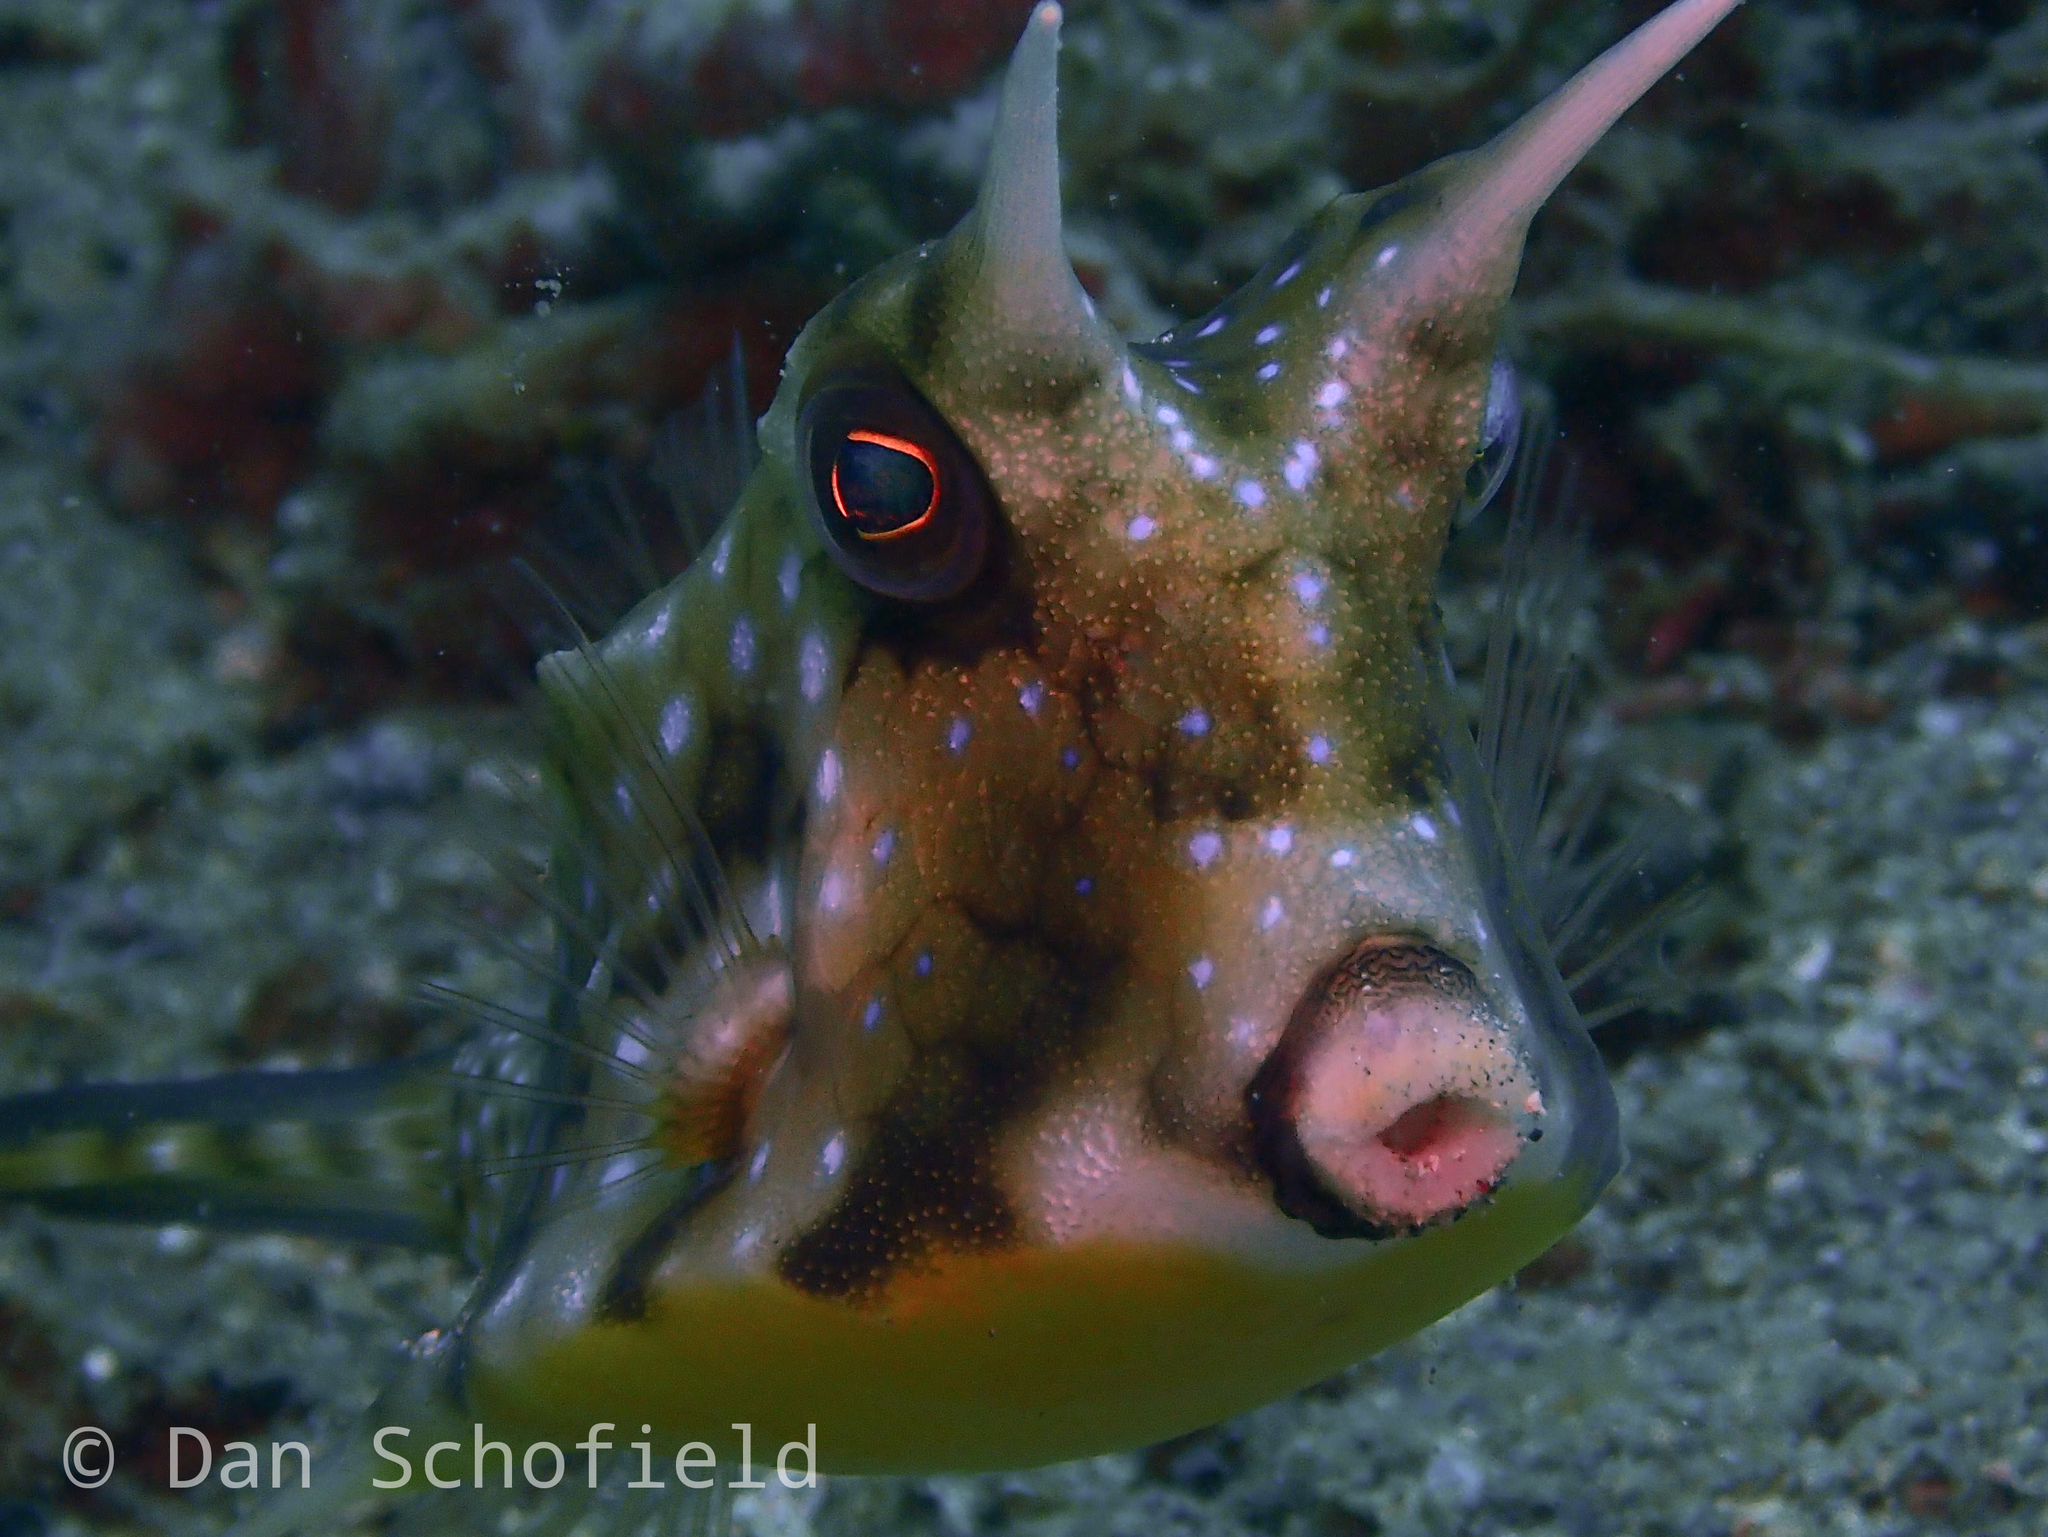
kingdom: Animalia
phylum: Chordata
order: Tetraodontiformes
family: Ostraciidae
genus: Lactoria
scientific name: Lactoria cornuta
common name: Longhorn cowfish
